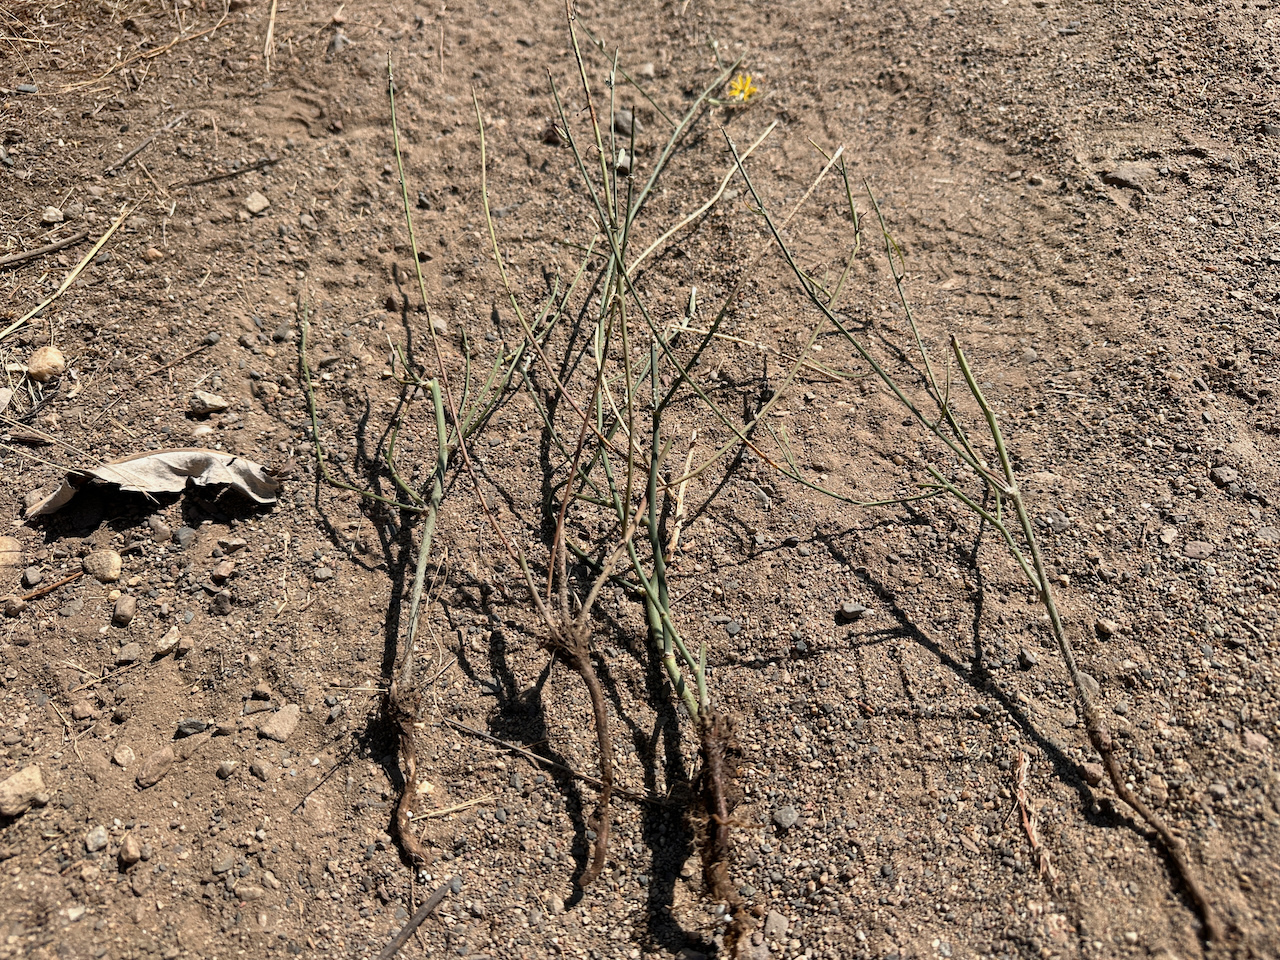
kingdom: Plantae
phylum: Tracheophyta
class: Magnoliopsida
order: Asterales
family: Asteraceae
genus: Chondrilla
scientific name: Chondrilla juncea
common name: Skeleton weed
